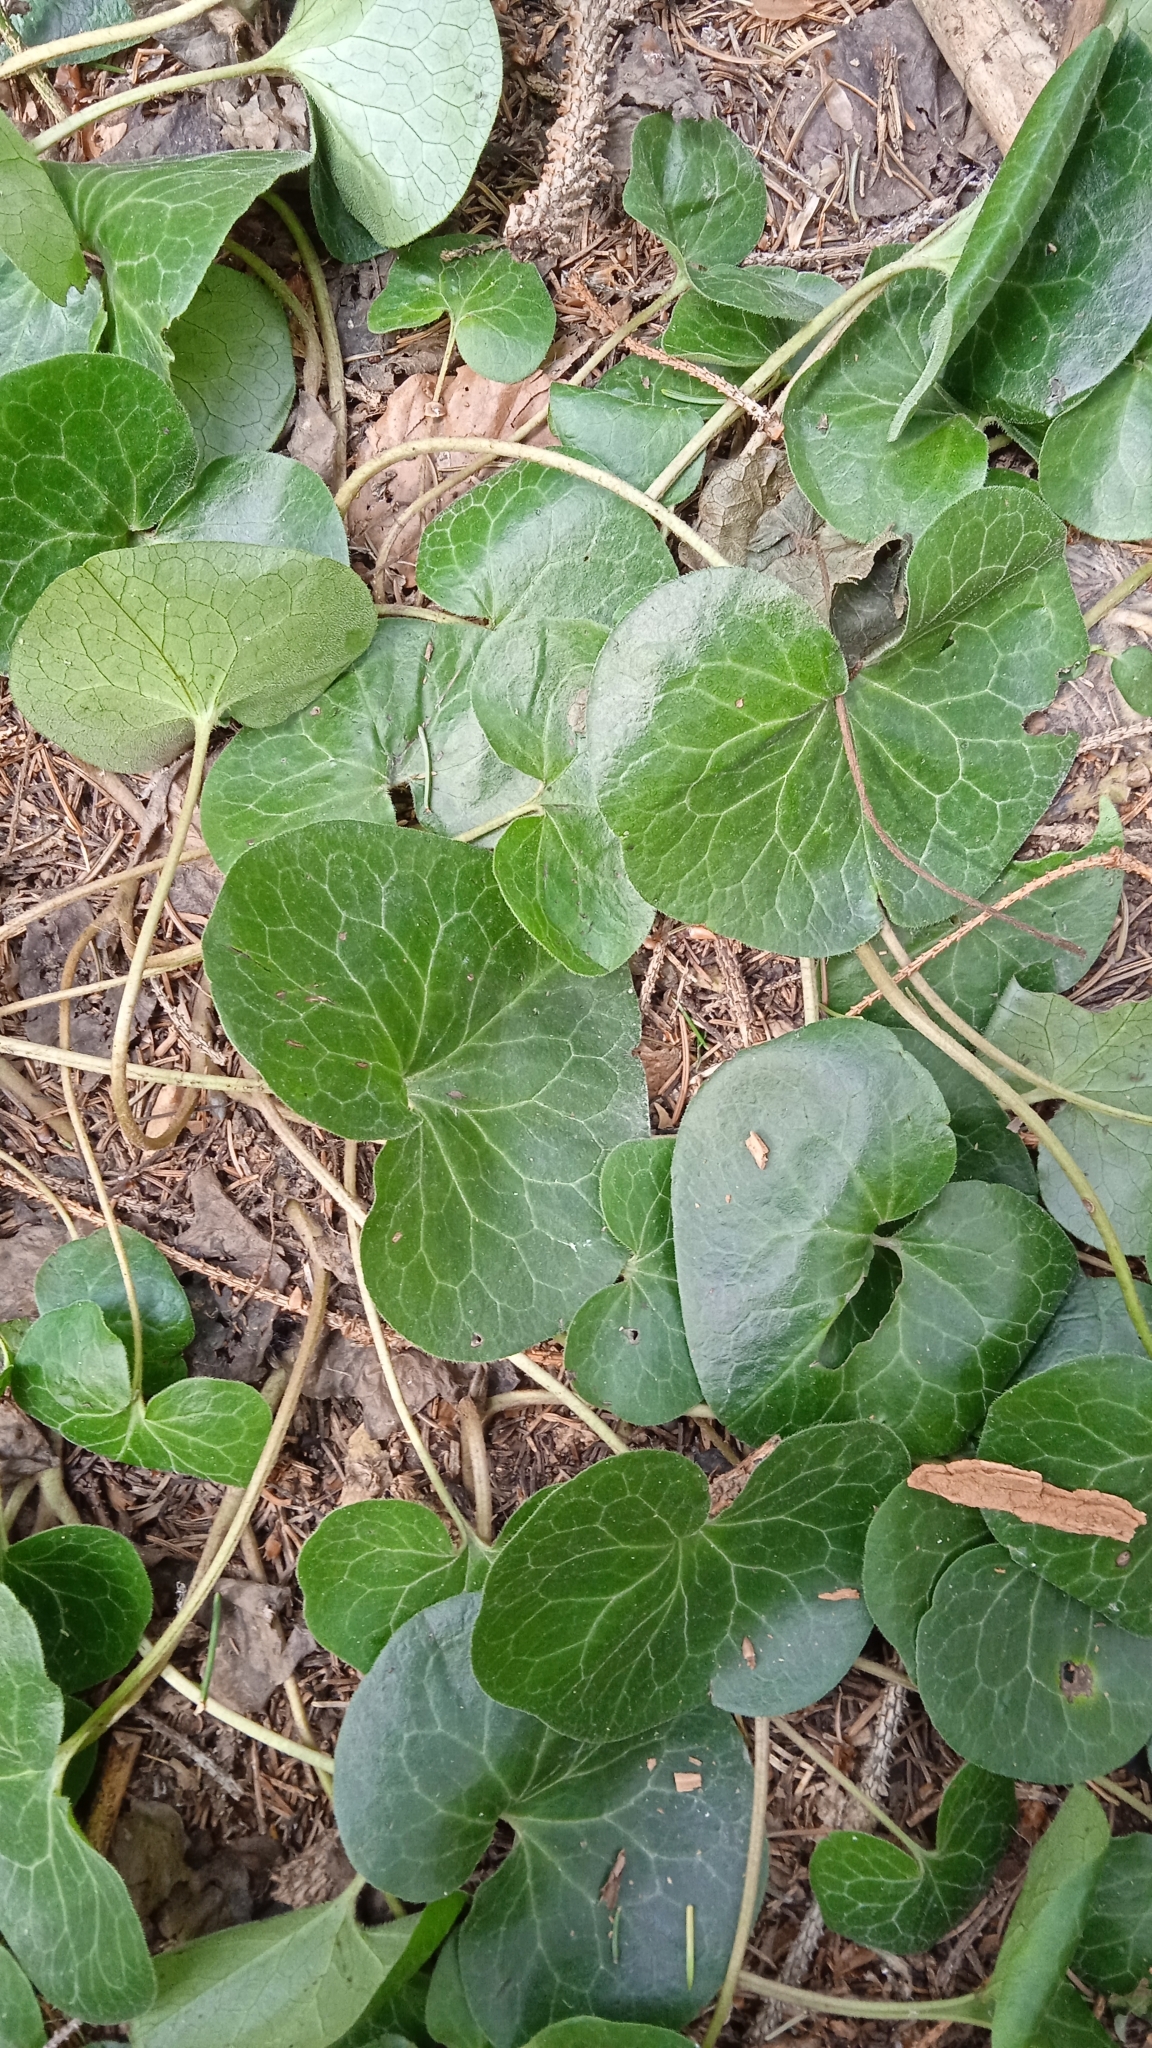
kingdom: Plantae
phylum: Tracheophyta
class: Magnoliopsida
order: Piperales
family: Aristolochiaceae
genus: Asarum
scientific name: Asarum europaeum
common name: Asarabacca
